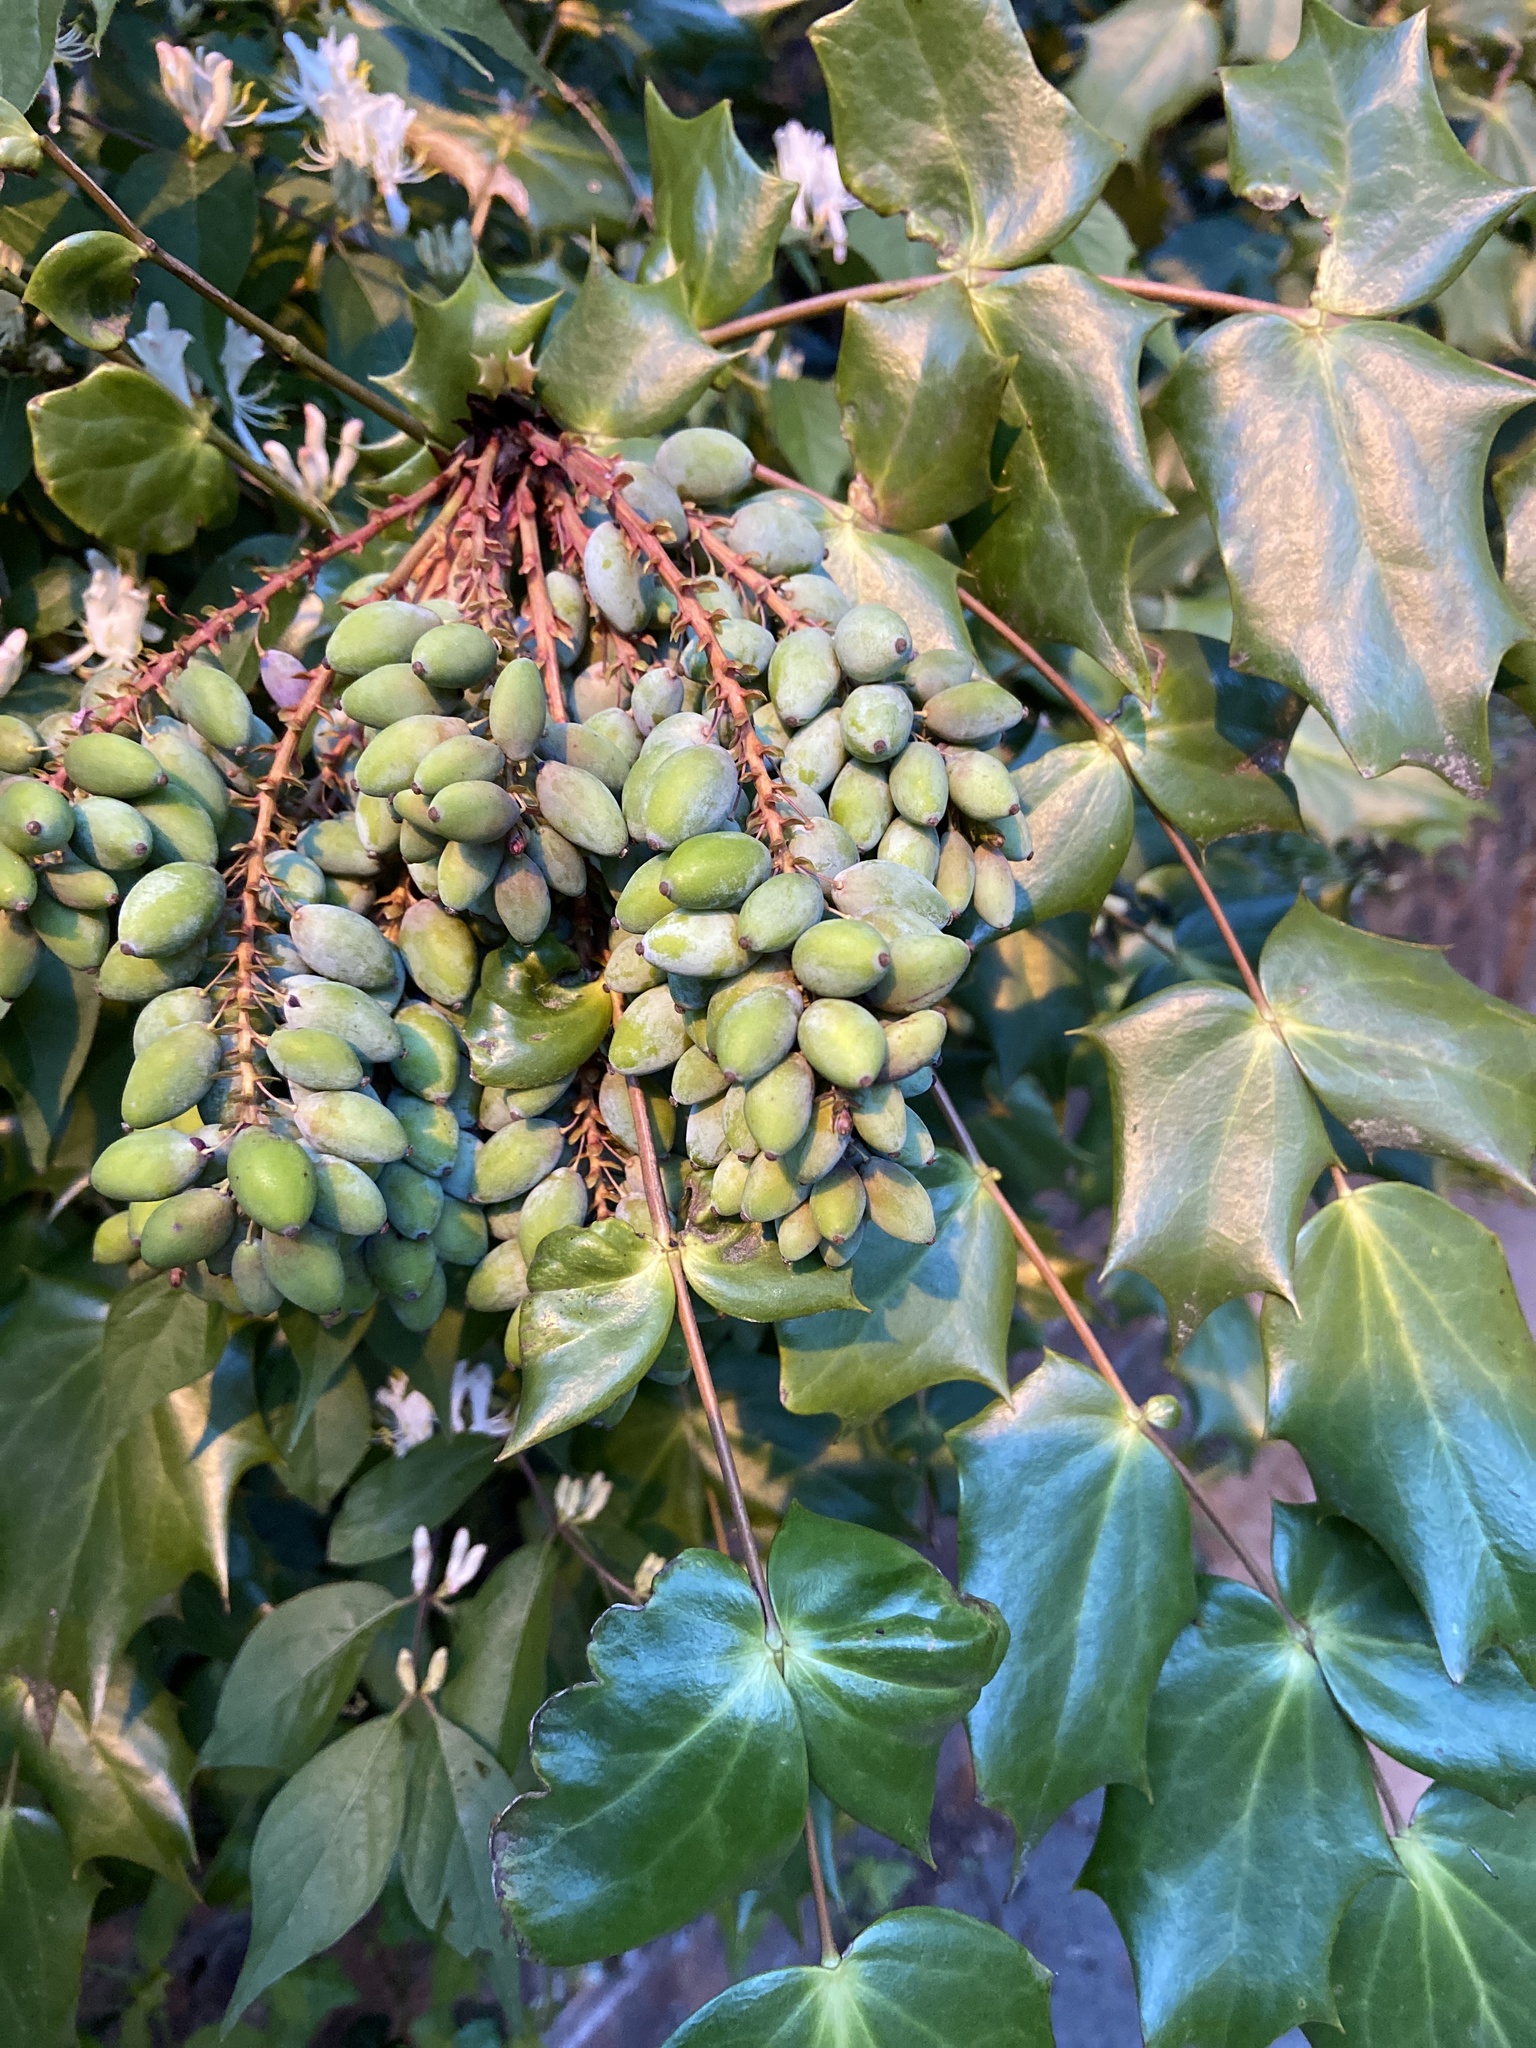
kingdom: Plantae
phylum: Tracheophyta
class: Magnoliopsida
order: Ranunculales
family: Berberidaceae
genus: Mahonia
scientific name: Mahonia bealei
